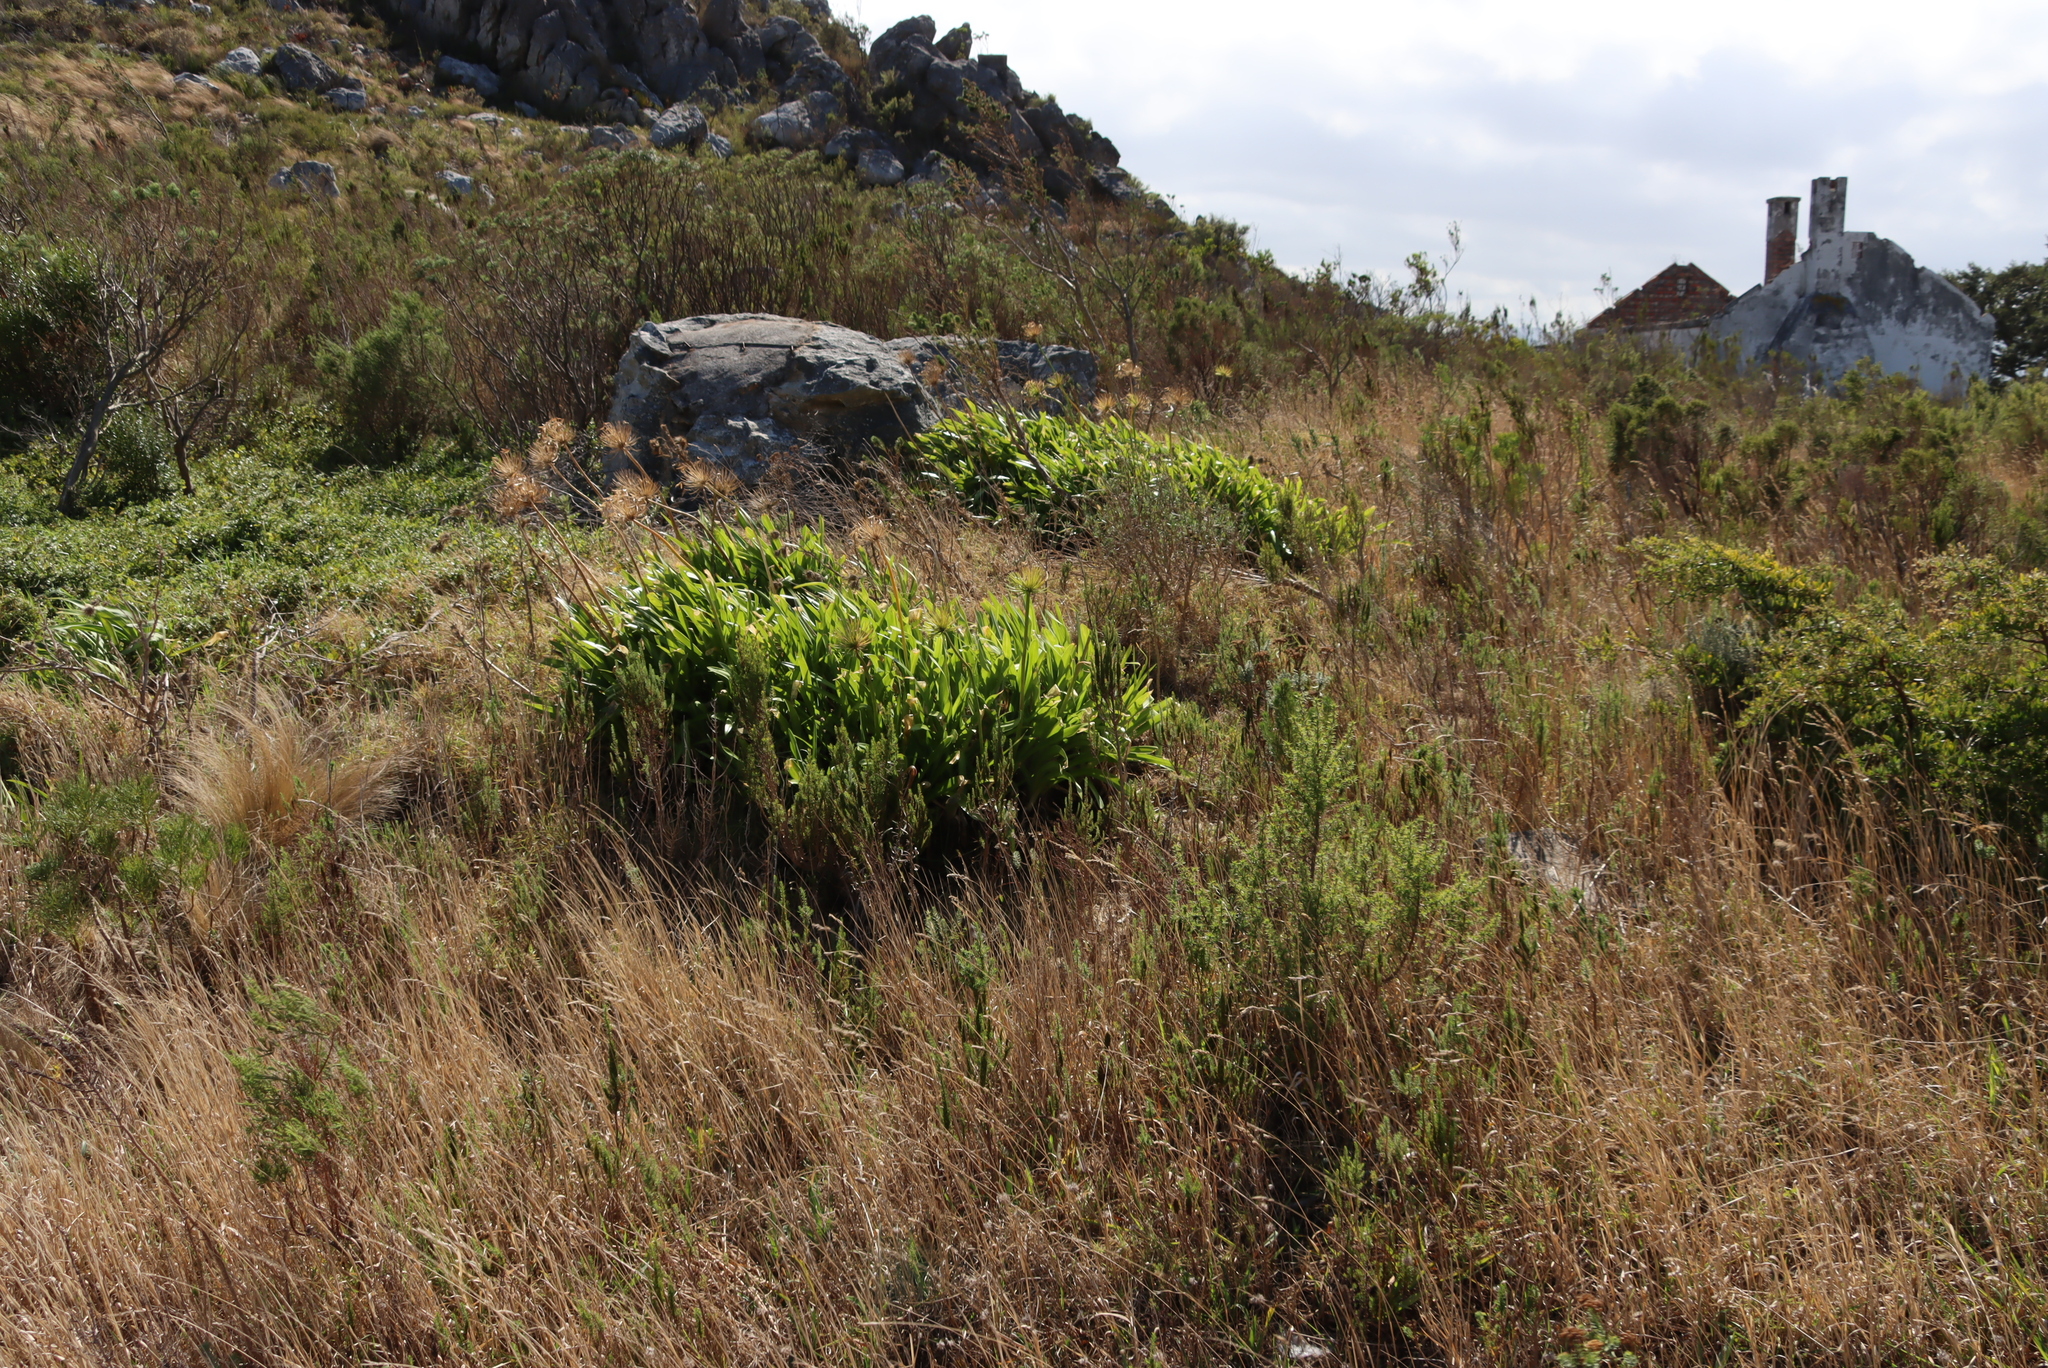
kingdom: Plantae
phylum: Tracheophyta
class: Liliopsida
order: Asparagales
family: Amaryllidaceae
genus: Agapanthus
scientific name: Agapanthus praecox
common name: African-lily
